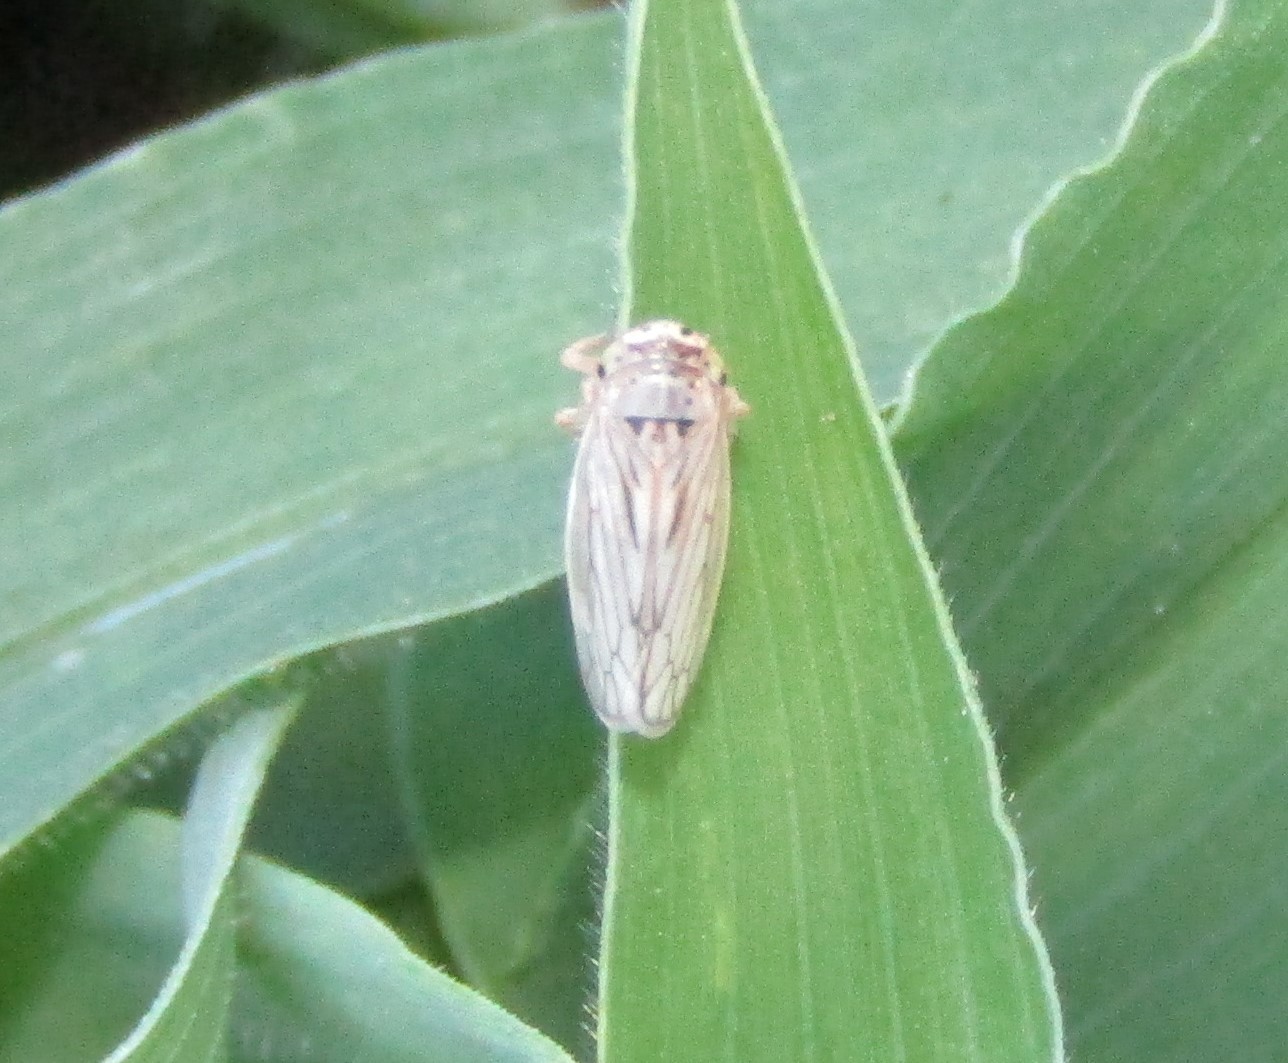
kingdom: Animalia
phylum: Arthropoda
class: Insecta
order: Hemiptera
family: Cicadellidae
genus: Exitianus
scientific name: Exitianus exitiosus
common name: Gray lawn leafhopper
